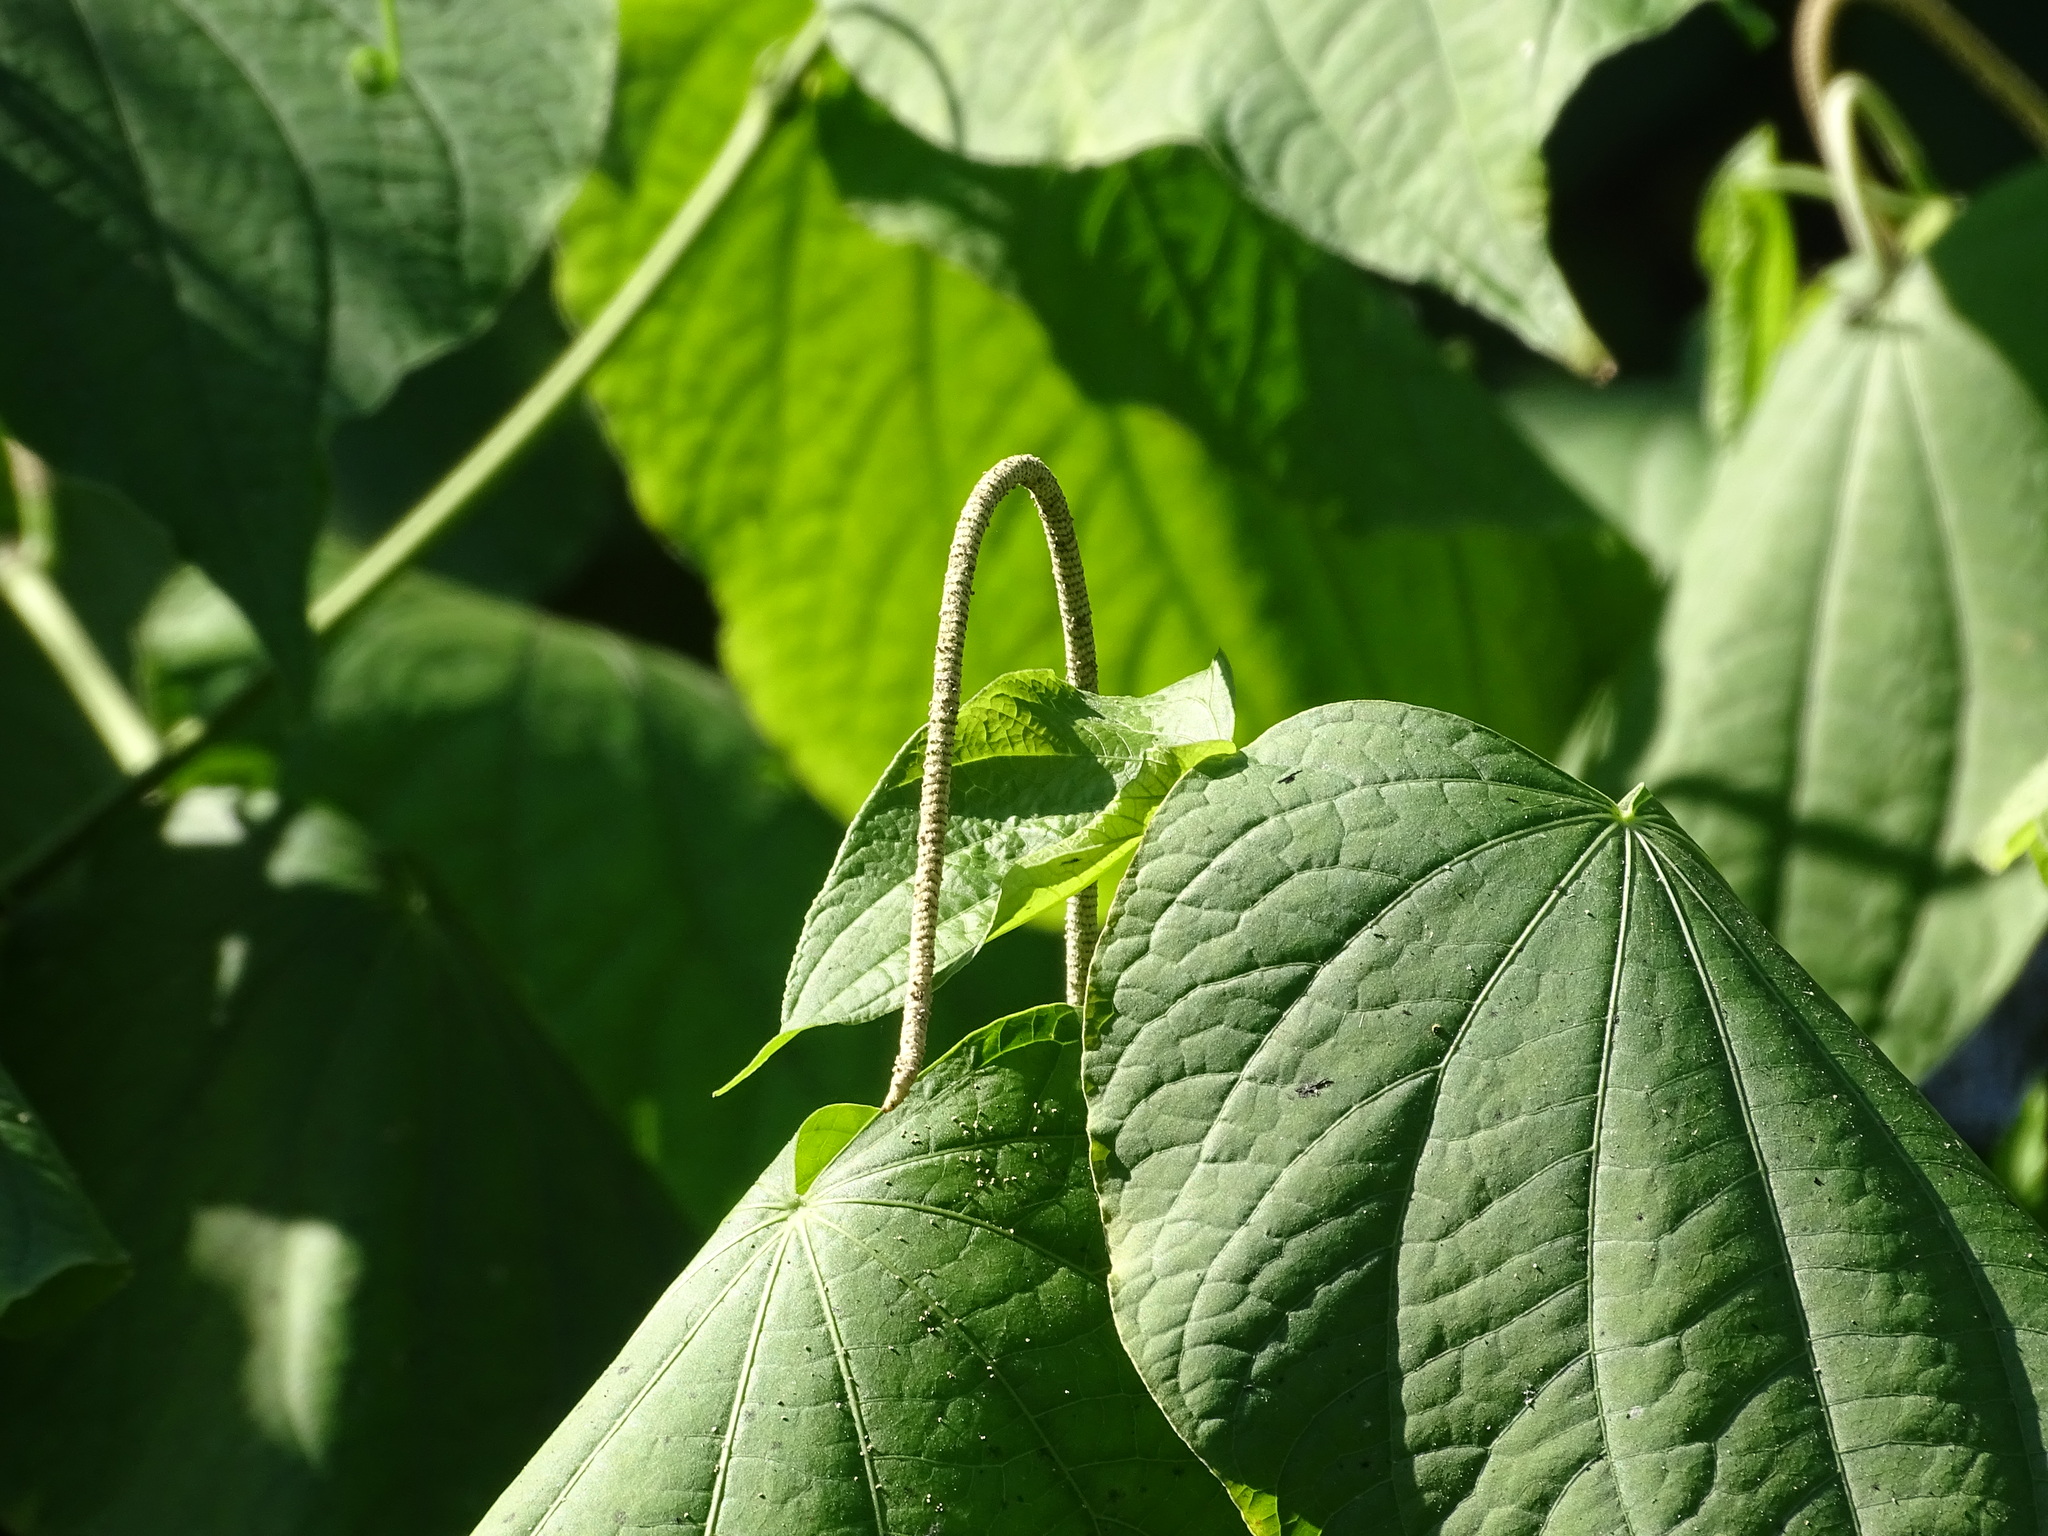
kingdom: Plantae
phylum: Tracheophyta
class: Magnoliopsida
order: Piperales
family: Piperaceae
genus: Piper
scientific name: Piper marginatum
